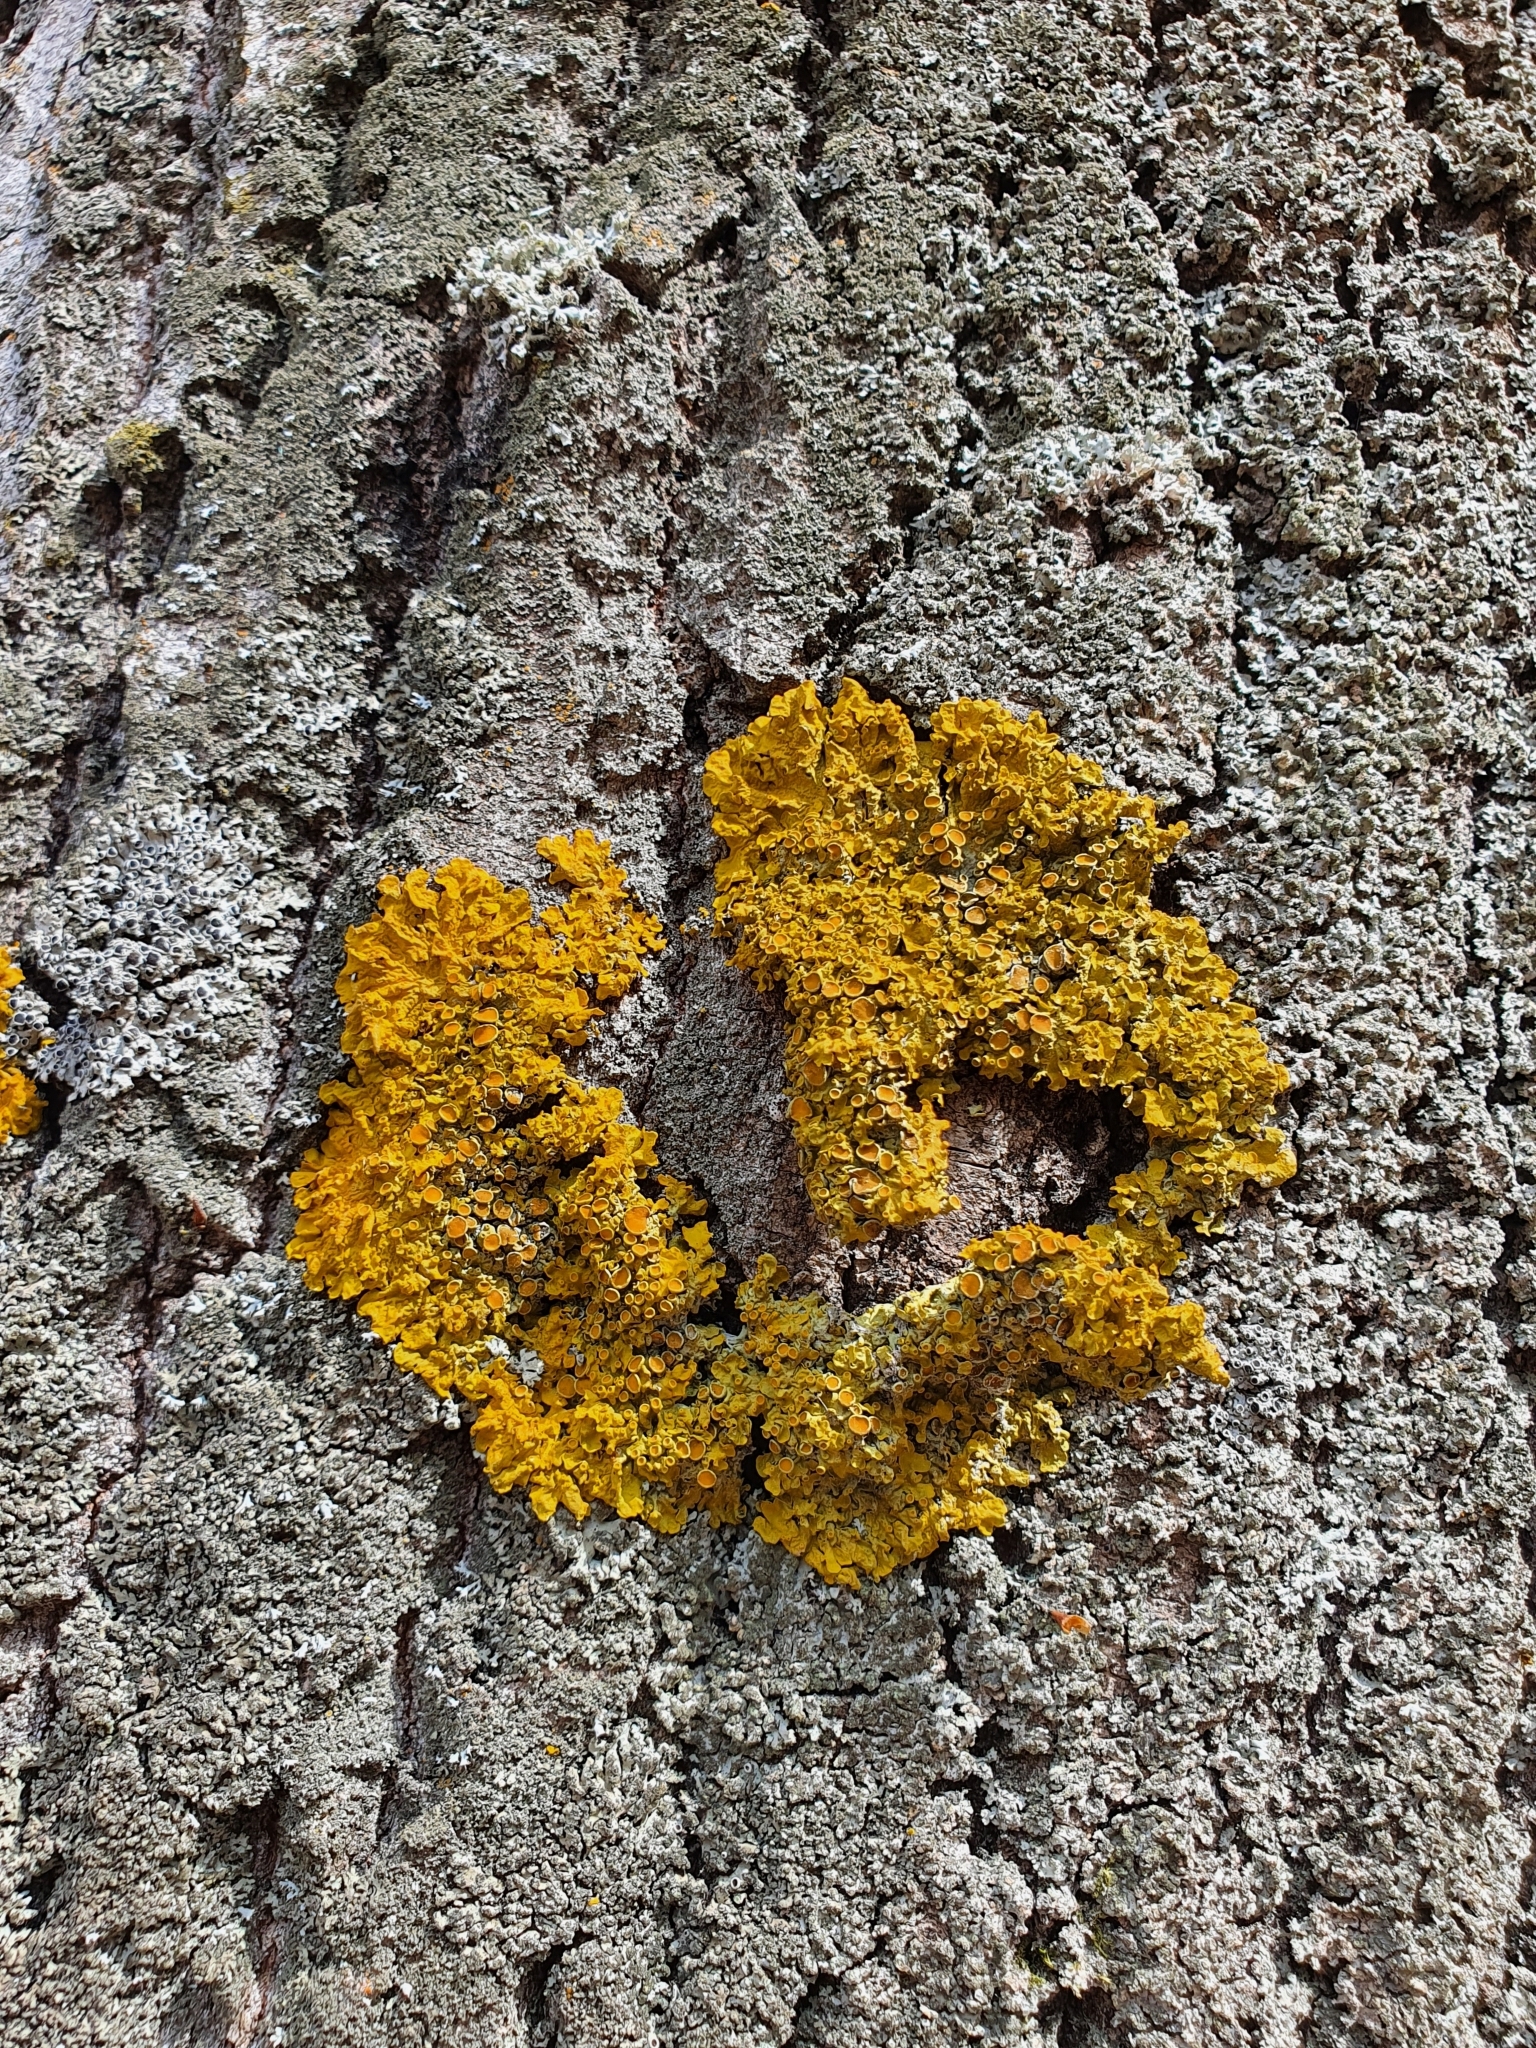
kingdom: Fungi
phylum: Ascomycota
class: Lecanoromycetes
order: Teloschistales
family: Teloschistaceae
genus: Xanthoria
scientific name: Xanthoria parietina
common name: Common orange lichen
